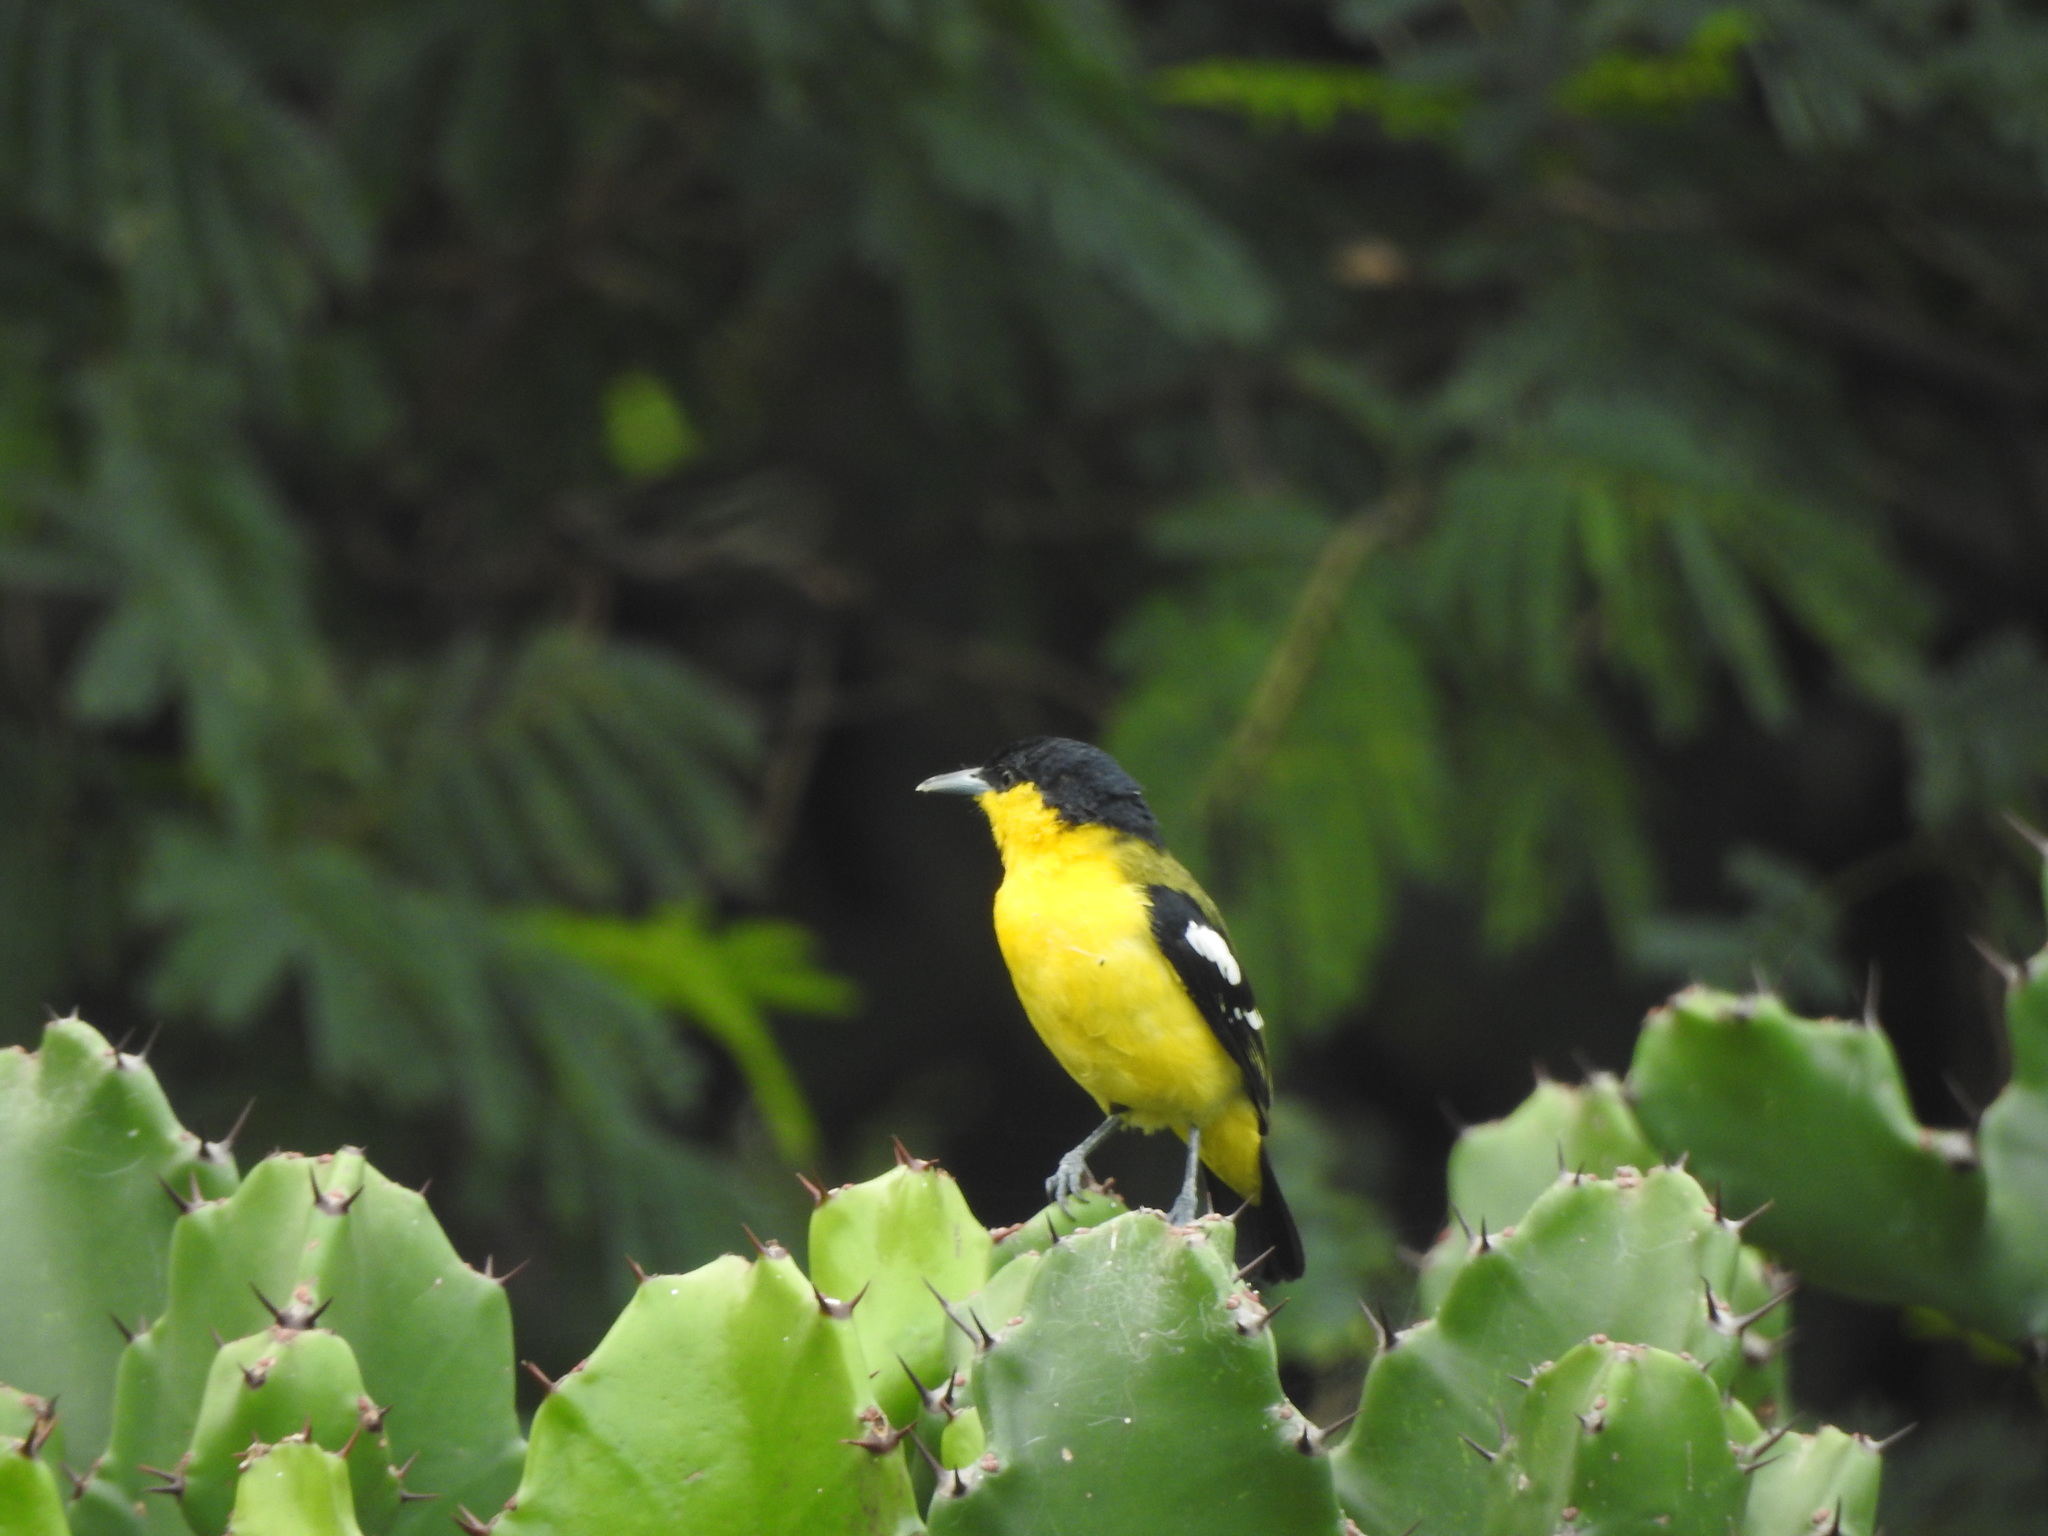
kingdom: Animalia
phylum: Chordata
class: Aves
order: Passeriformes
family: Aegithinidae
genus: Aegithina
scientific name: Aegithina tiphia
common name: Common iora
